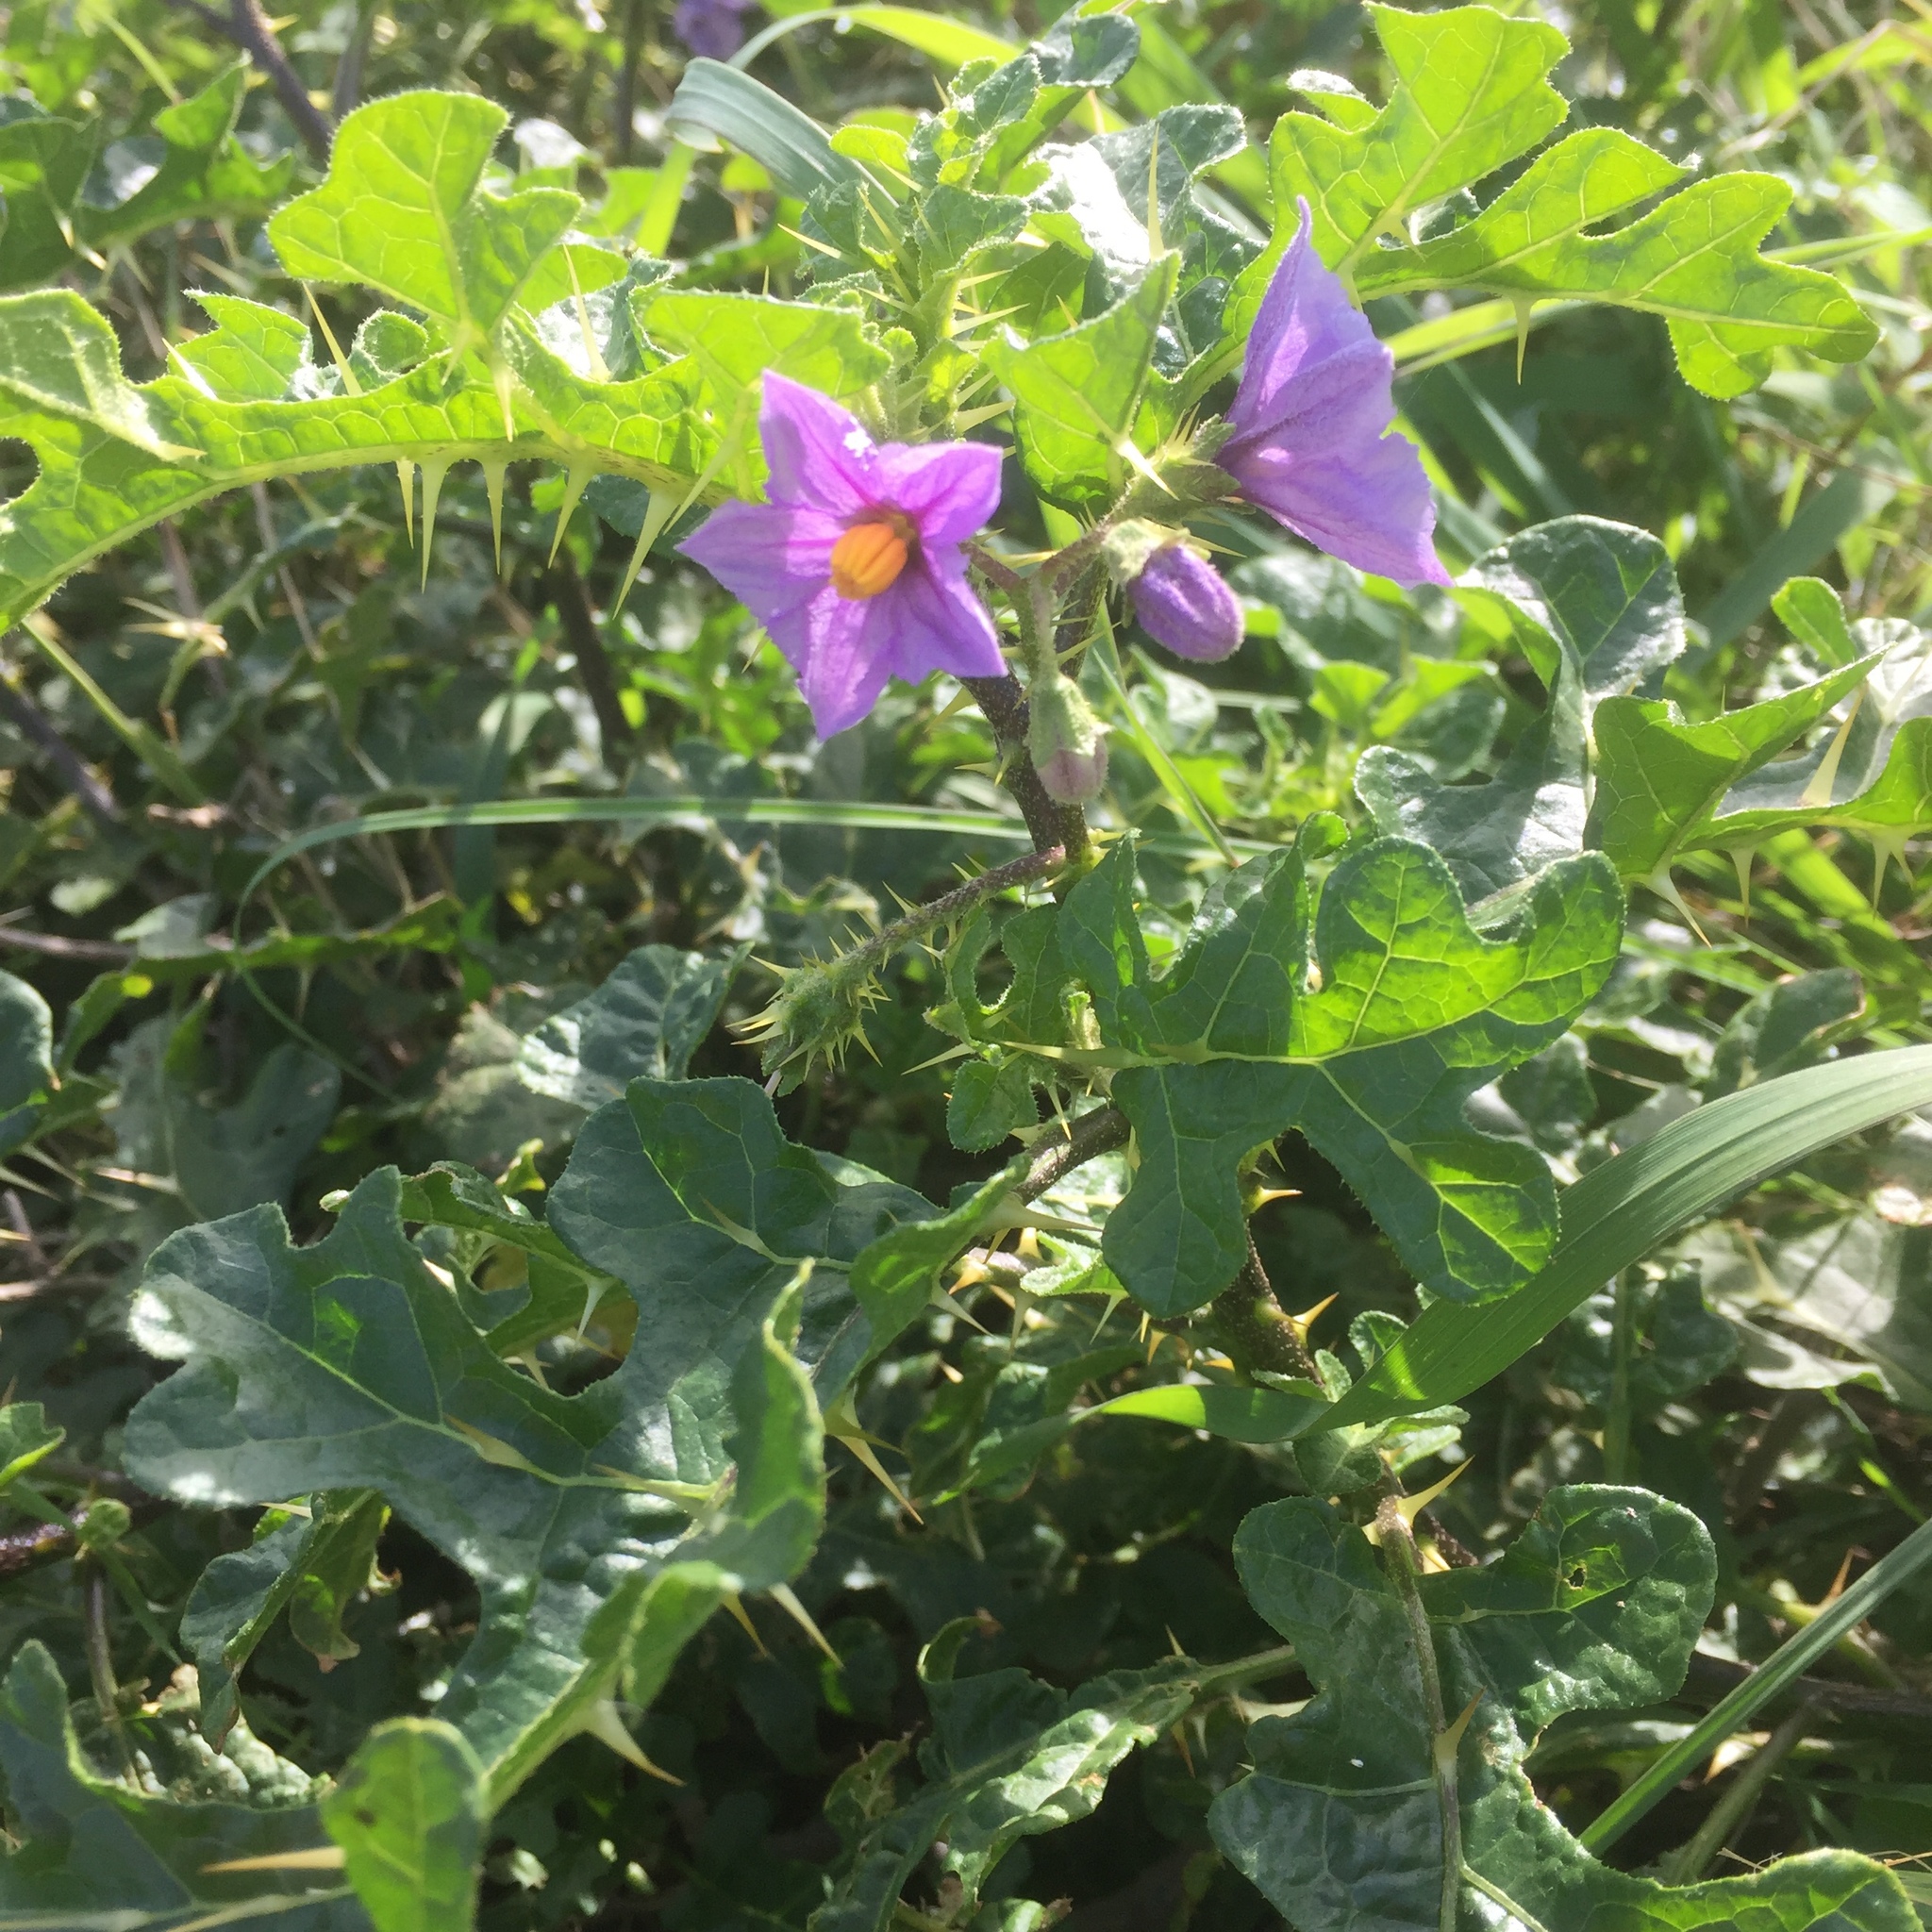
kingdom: Plantae
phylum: Tracheophyta
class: Magnoliopsida
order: Solanales
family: Solanaceae
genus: Solanum
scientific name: Solanum linnaeanum
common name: Nightshade
